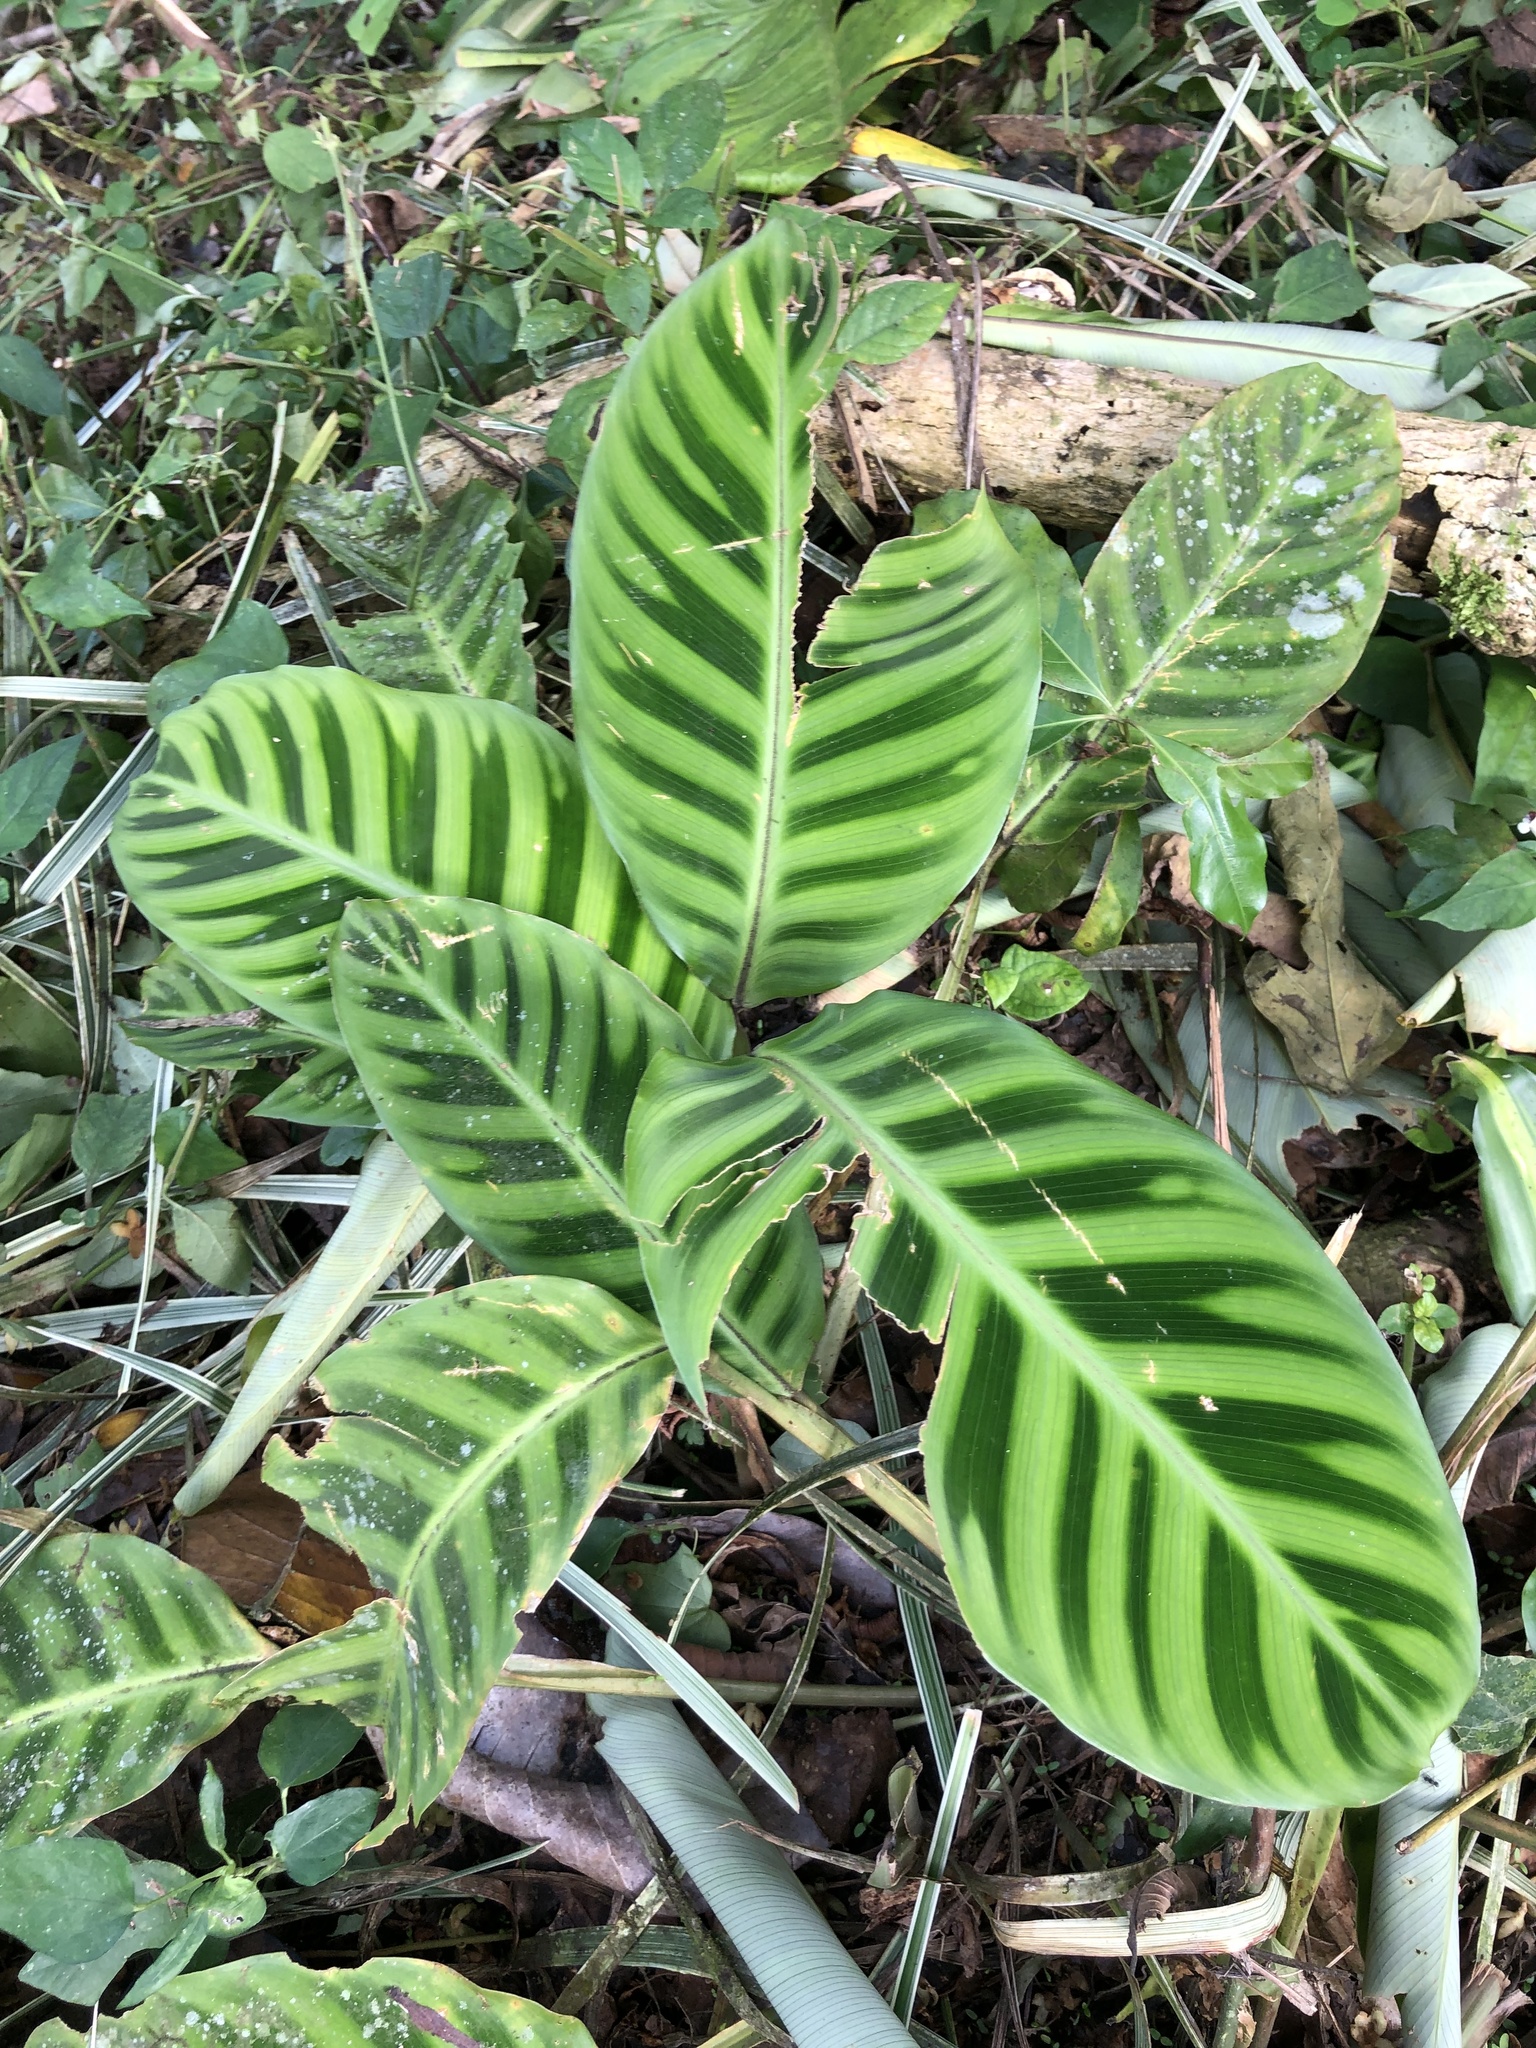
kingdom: Plantae
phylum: Tracheophyta
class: Liliopsida
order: Zingiberales
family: Marantaceae
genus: Goeppertia
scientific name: Goeppertia zebrina
